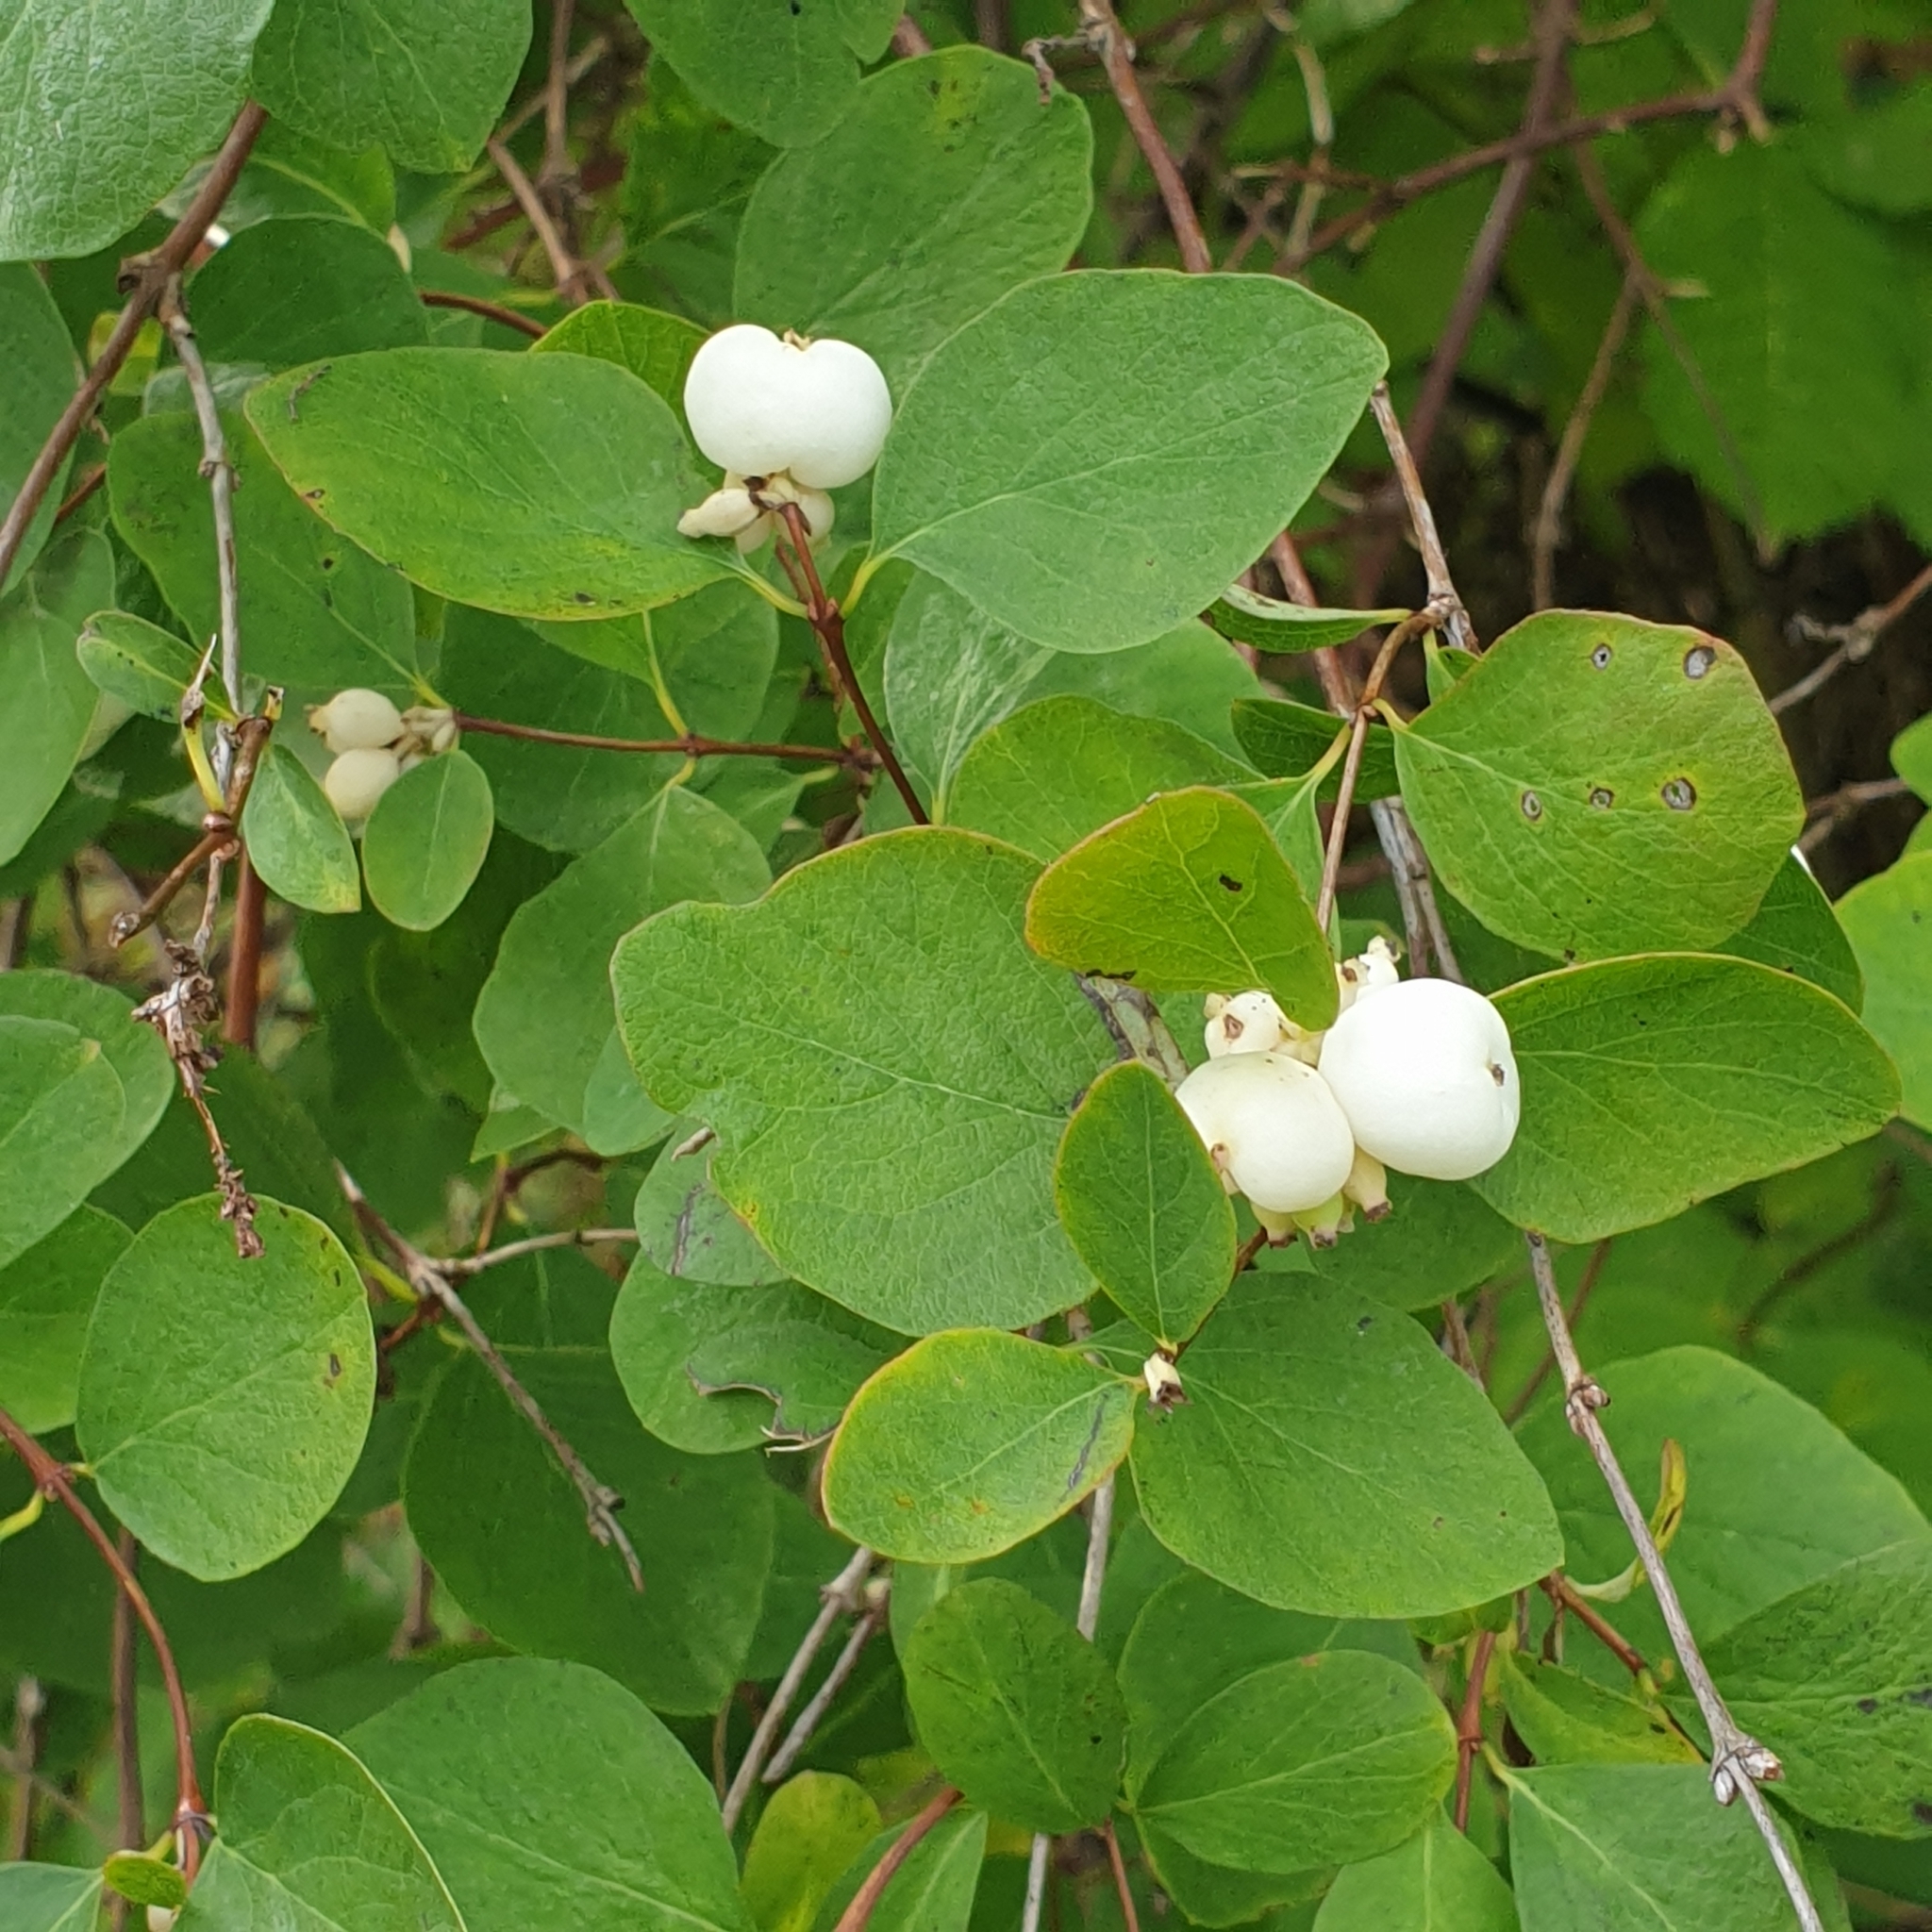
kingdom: Plantae
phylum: Tracheophyta
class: Magnoliopsida
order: Dipsacales
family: Caprifoliaceae
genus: Symphoricarpos
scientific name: Symphoricarpos albus
